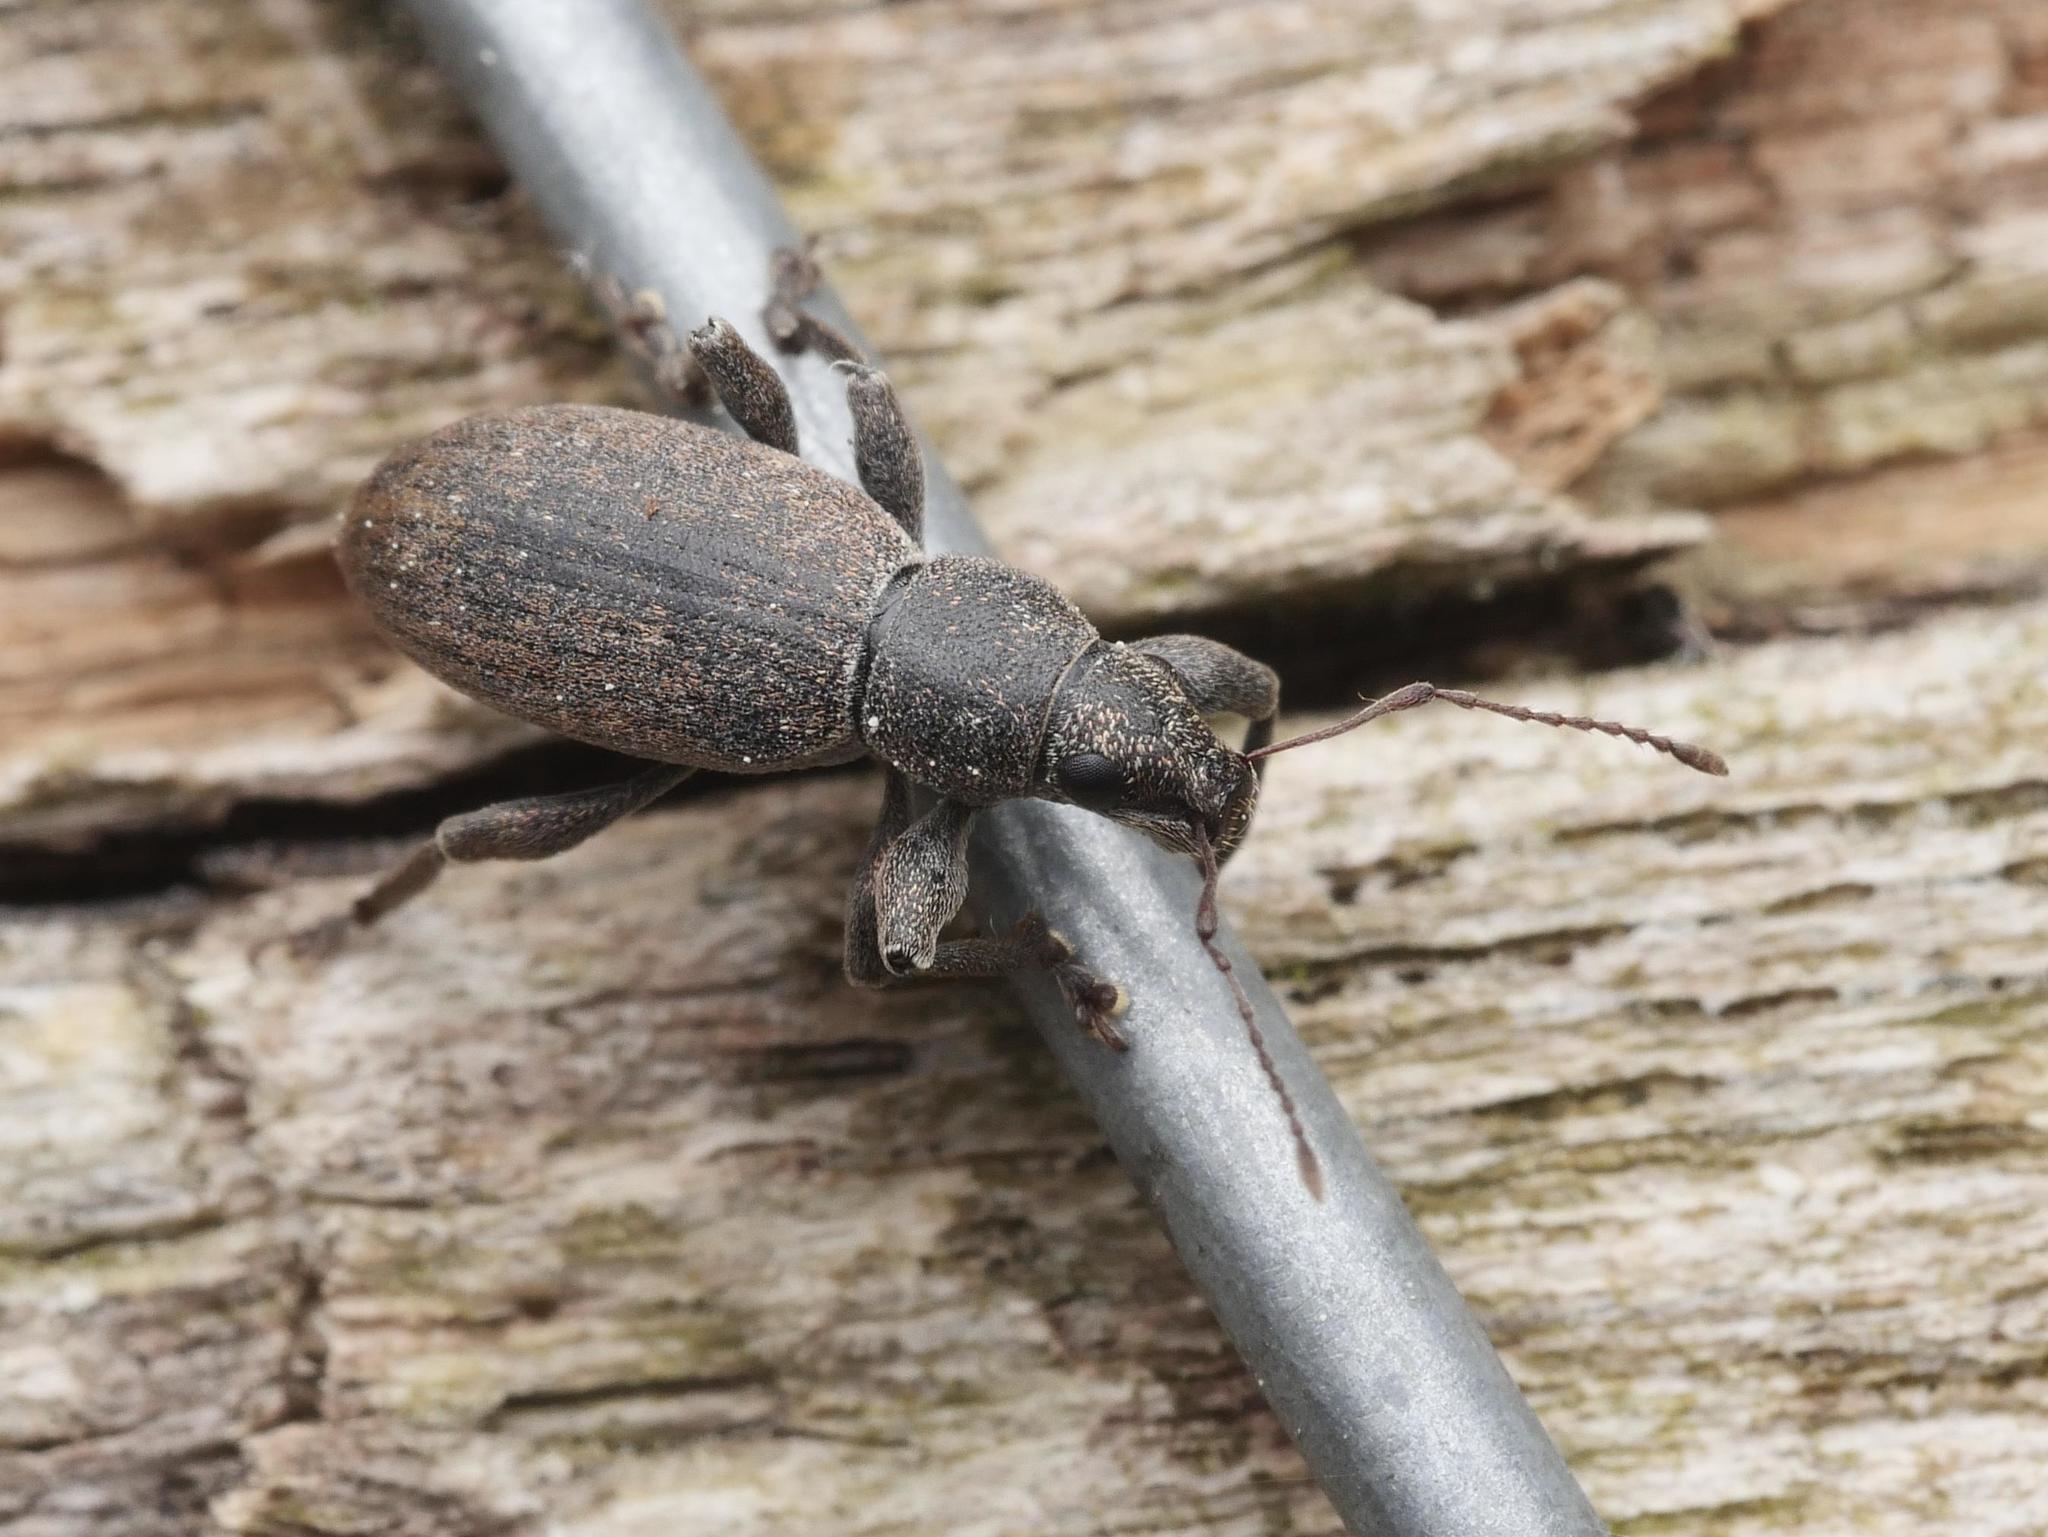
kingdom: Animalia
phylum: Arthropoda
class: Insecta
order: Coleoptera
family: Curculionidae
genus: Brachyderes
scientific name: Brachyderes incanus
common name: Weevil
